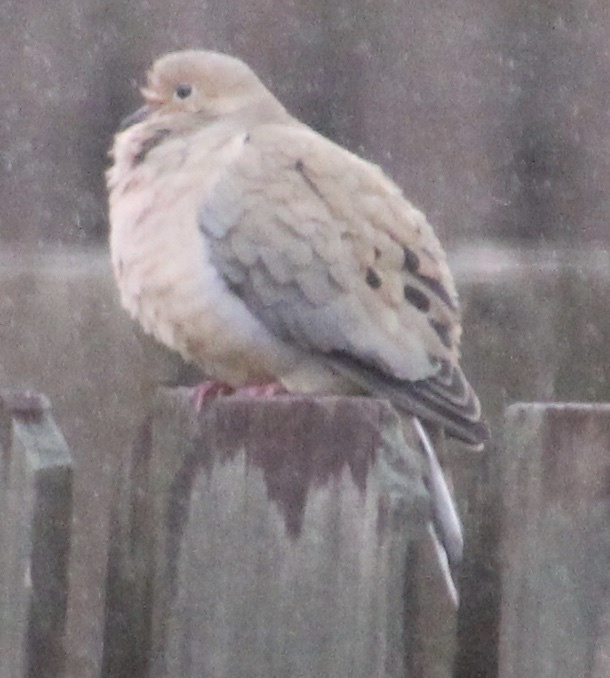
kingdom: Animalia
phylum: Chordata
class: Aves
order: Columbiformes
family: Columbidae
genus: Zenaida
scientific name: Zenaida macroura
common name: Mourning dove
